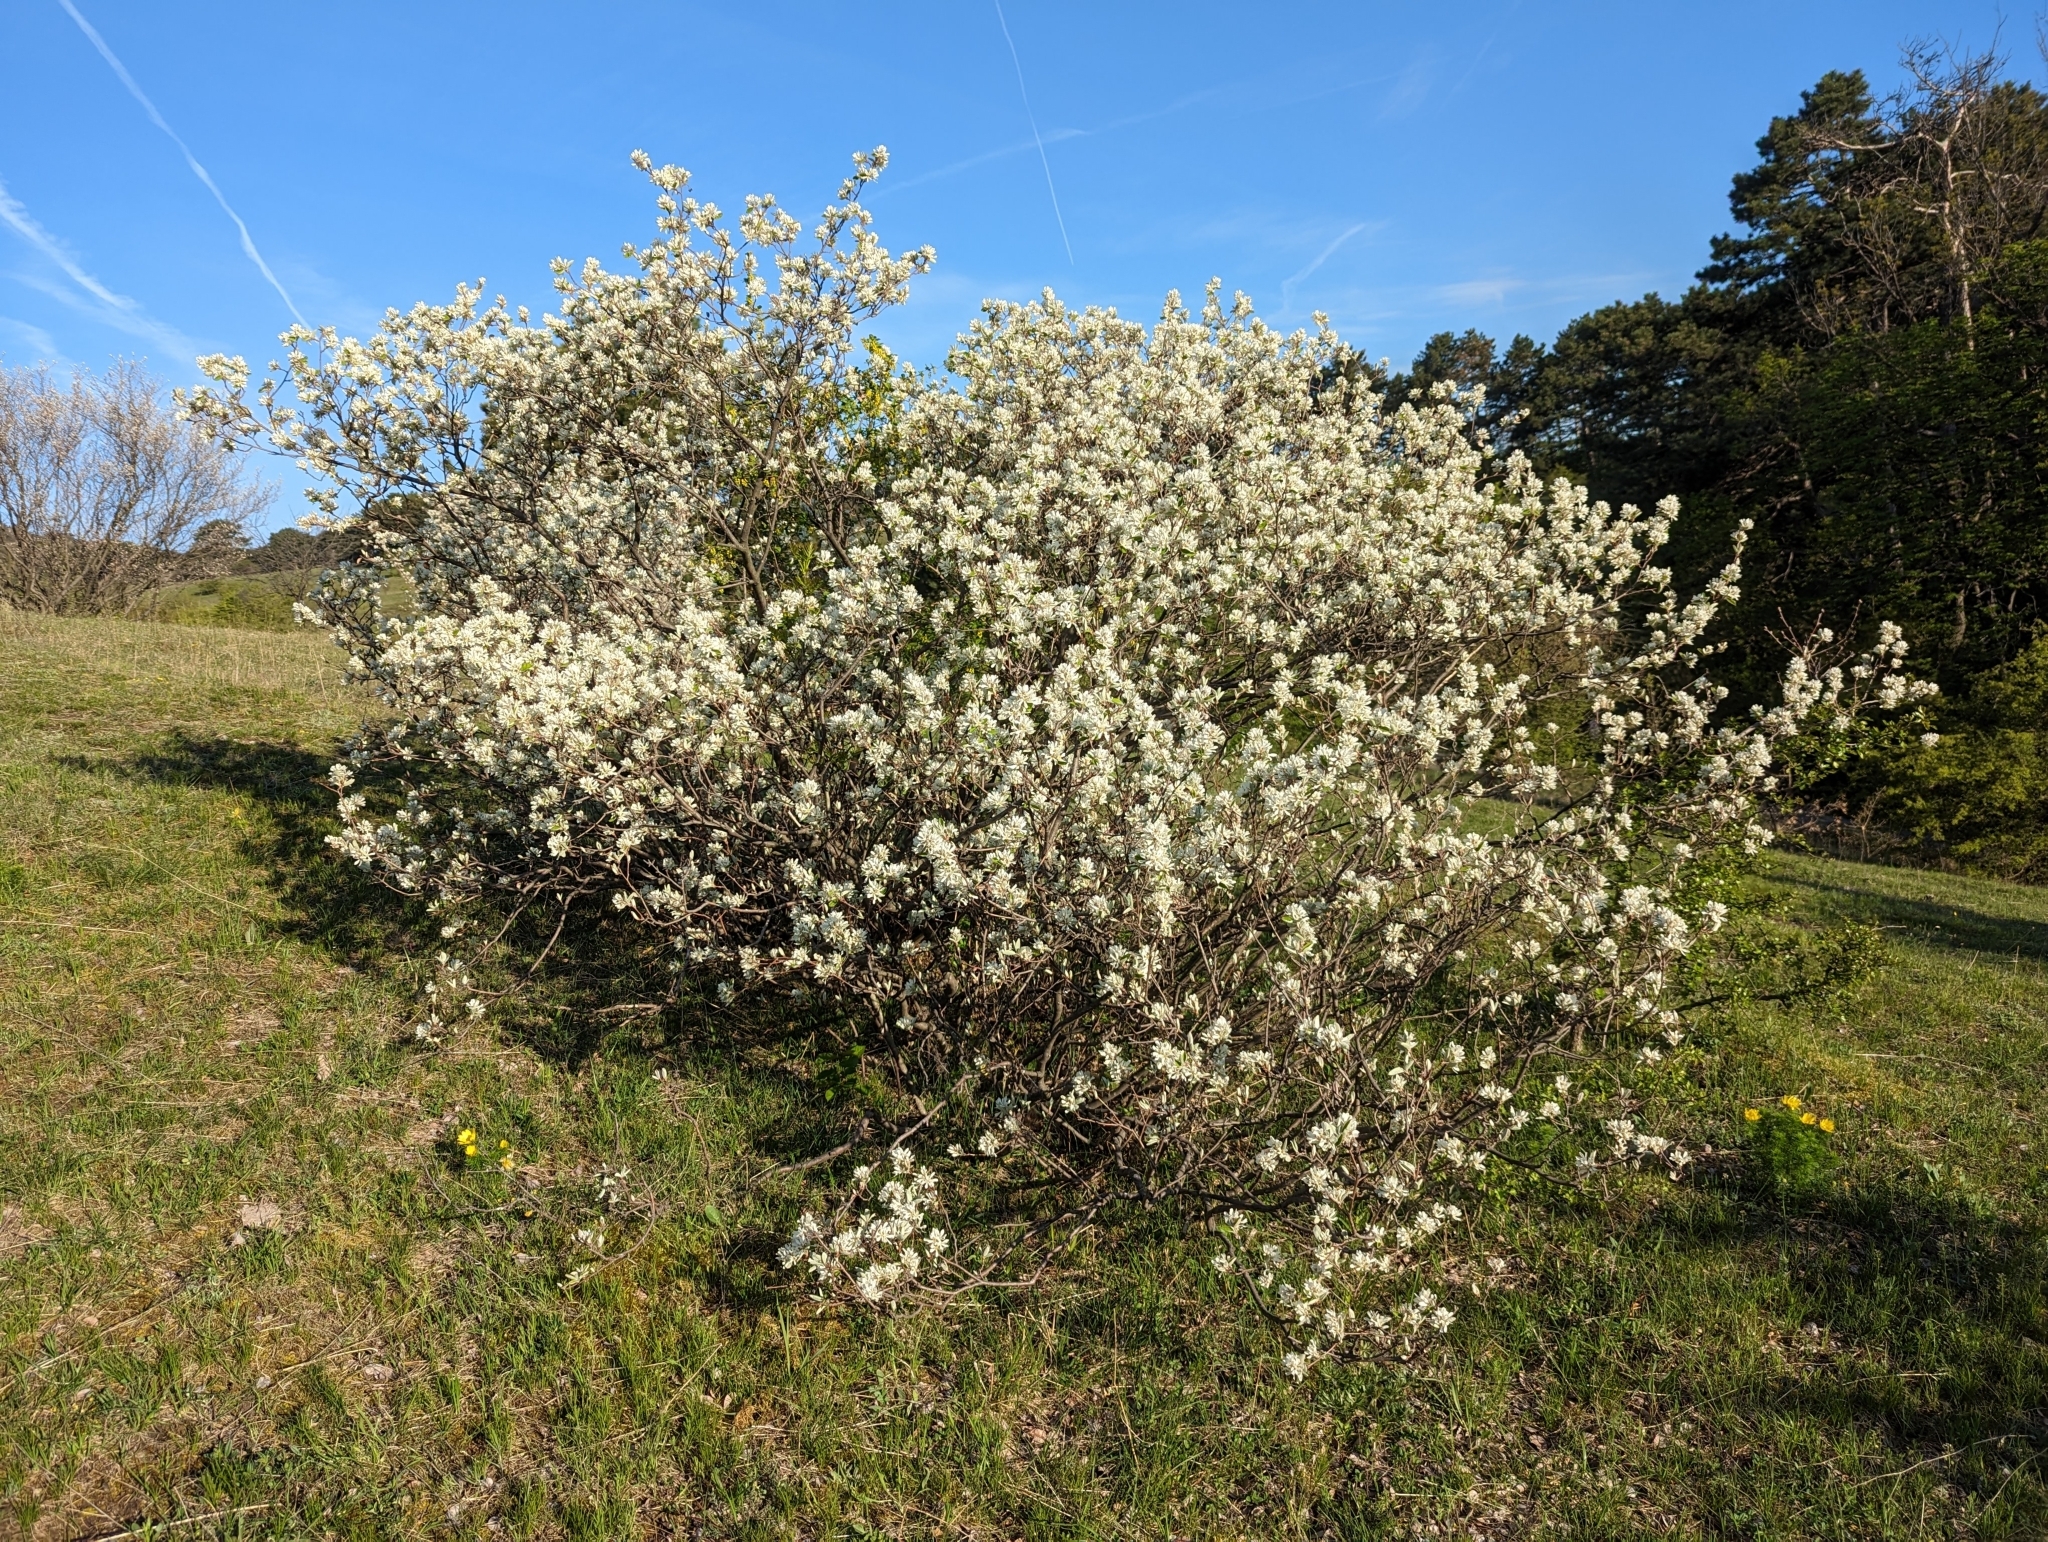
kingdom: Plantae
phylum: Tracheophyta
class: Magnoliopsida
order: Rosales
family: Rosaceae
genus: Amelanchier
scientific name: Amelanchier ovalis
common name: Serviceberry
